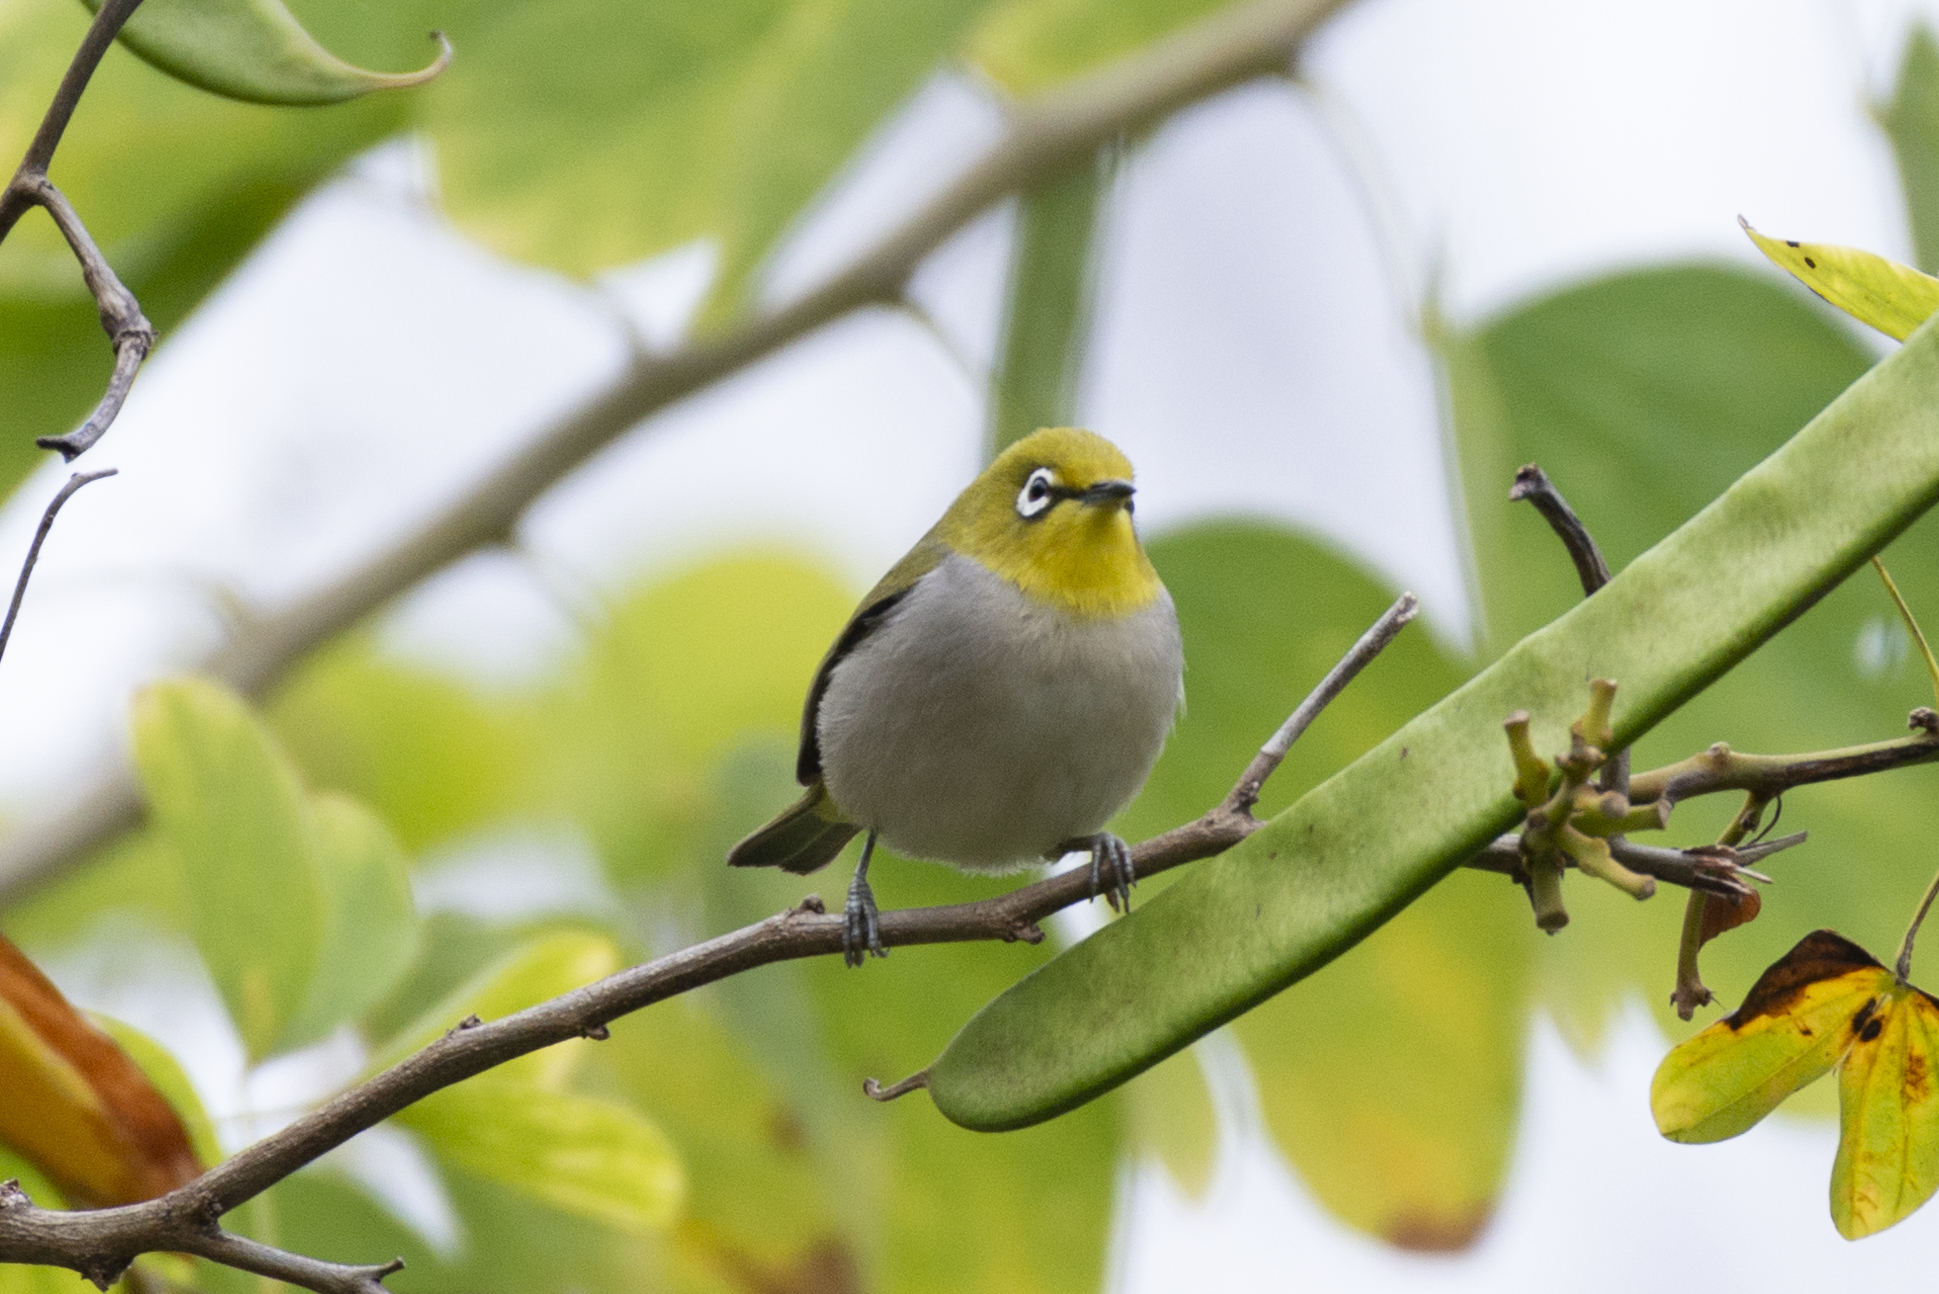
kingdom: Animalia
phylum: Chordata
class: Aves
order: Passeriformes
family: Zosteropidae
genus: Zosterops
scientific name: Zosterops simplex
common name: Swinhoe's white-eye
